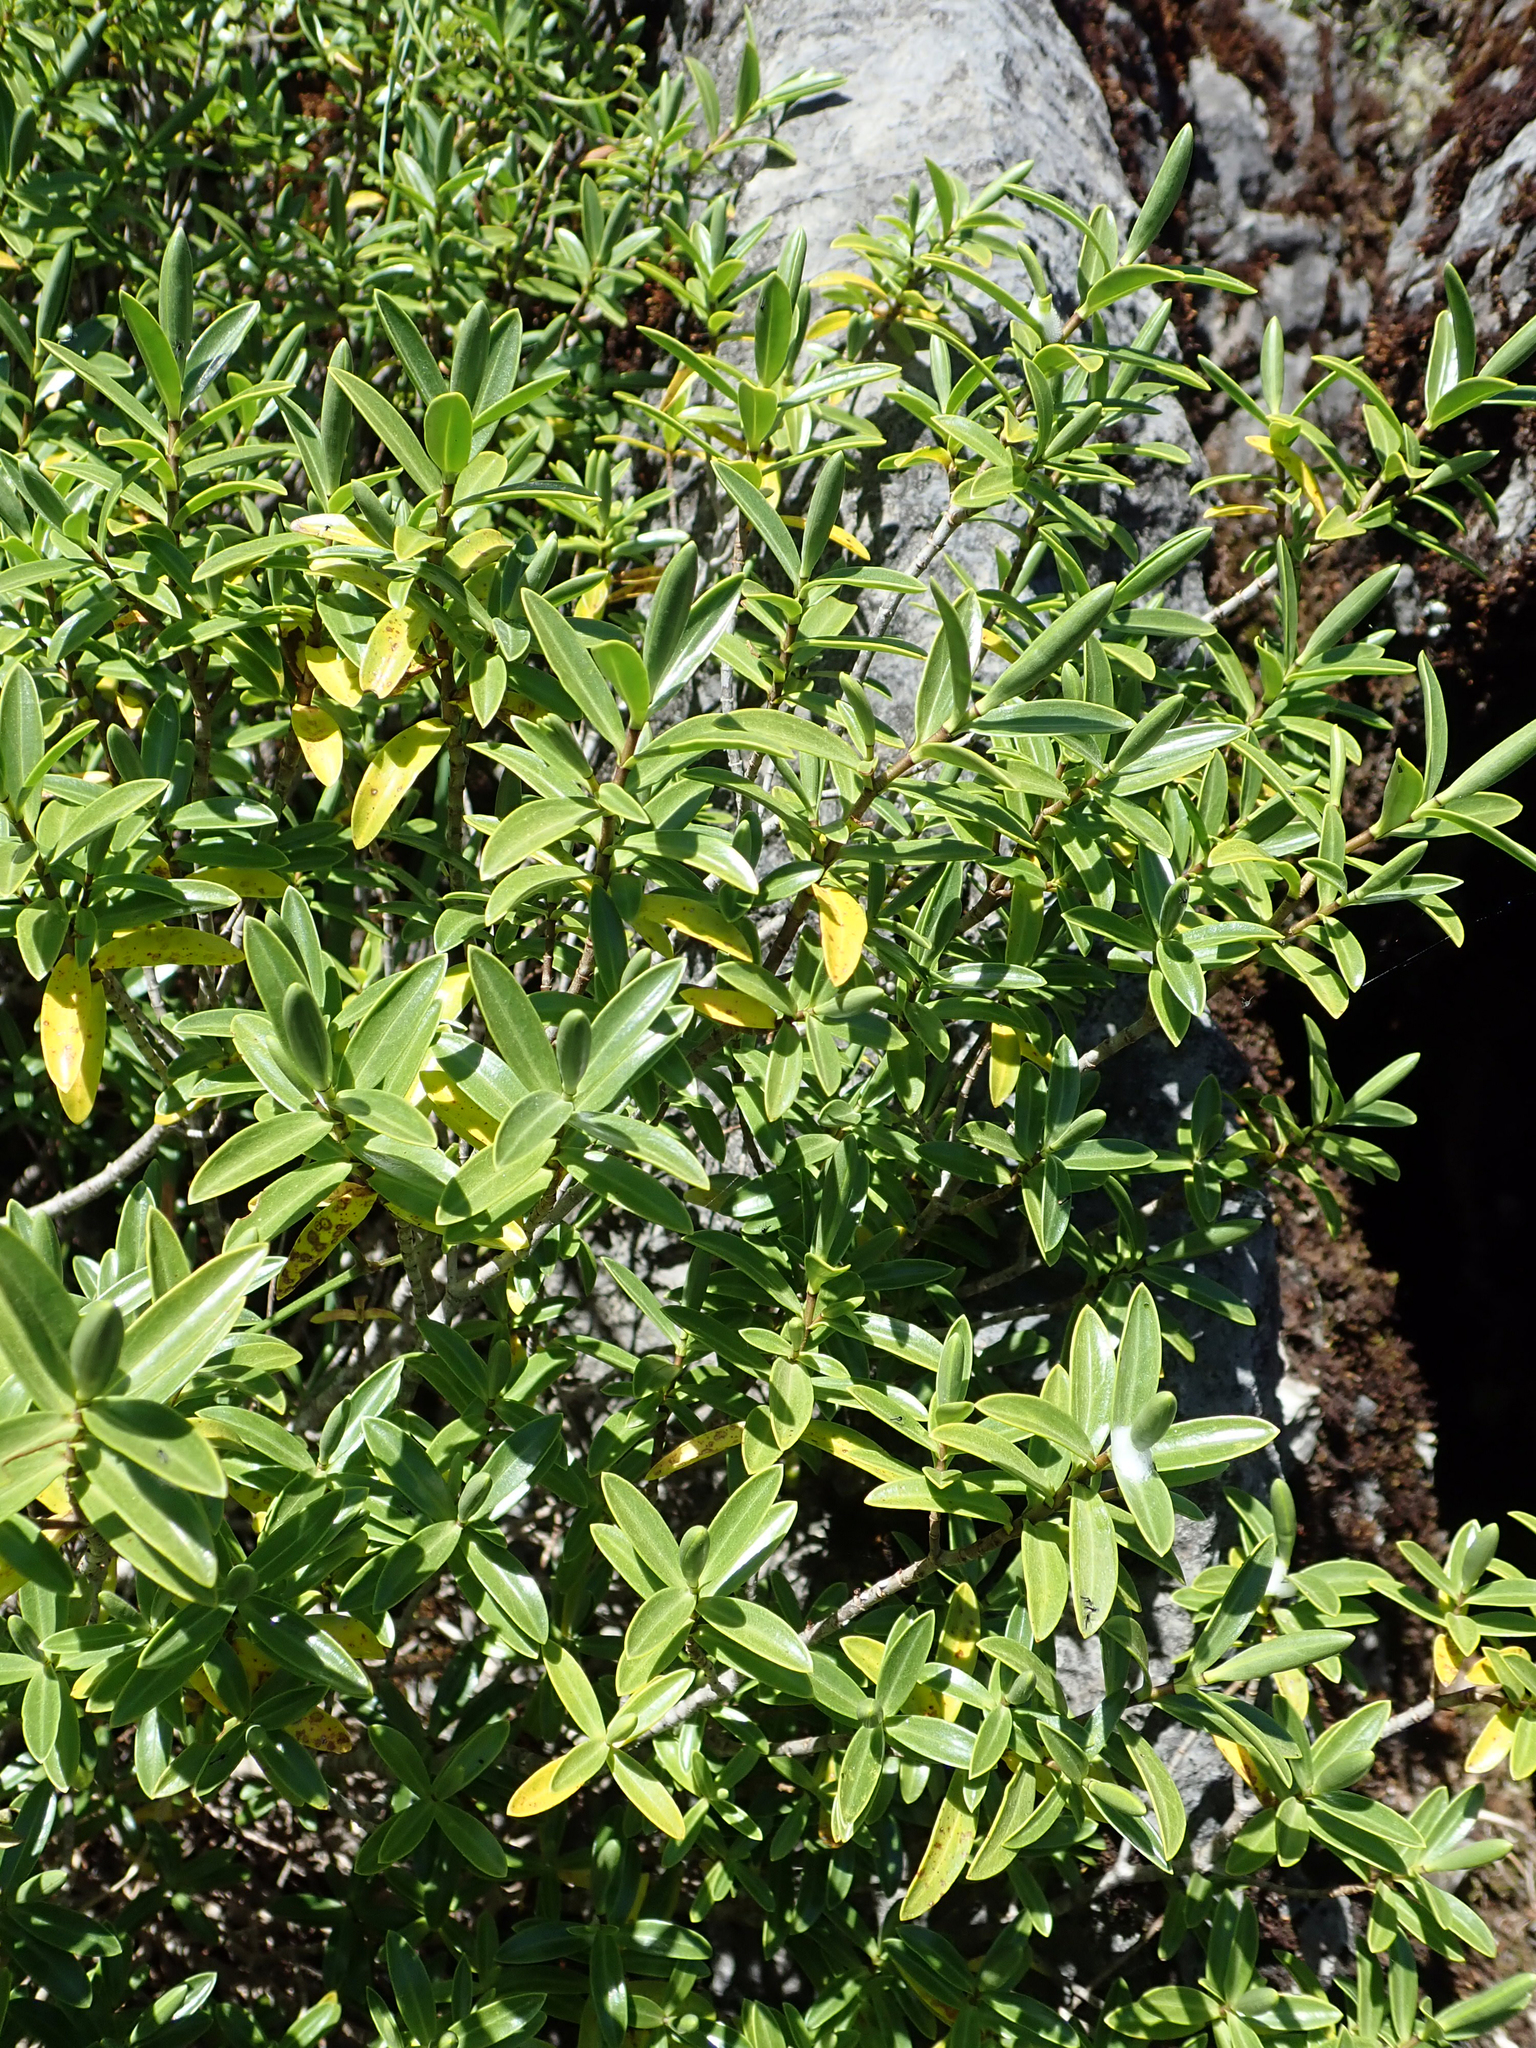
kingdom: Plantae
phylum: Tracheophyta
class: Magnoliopsida
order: Lamiales
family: Plantaginaceae
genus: Veronica
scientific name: Veronica calcicola
